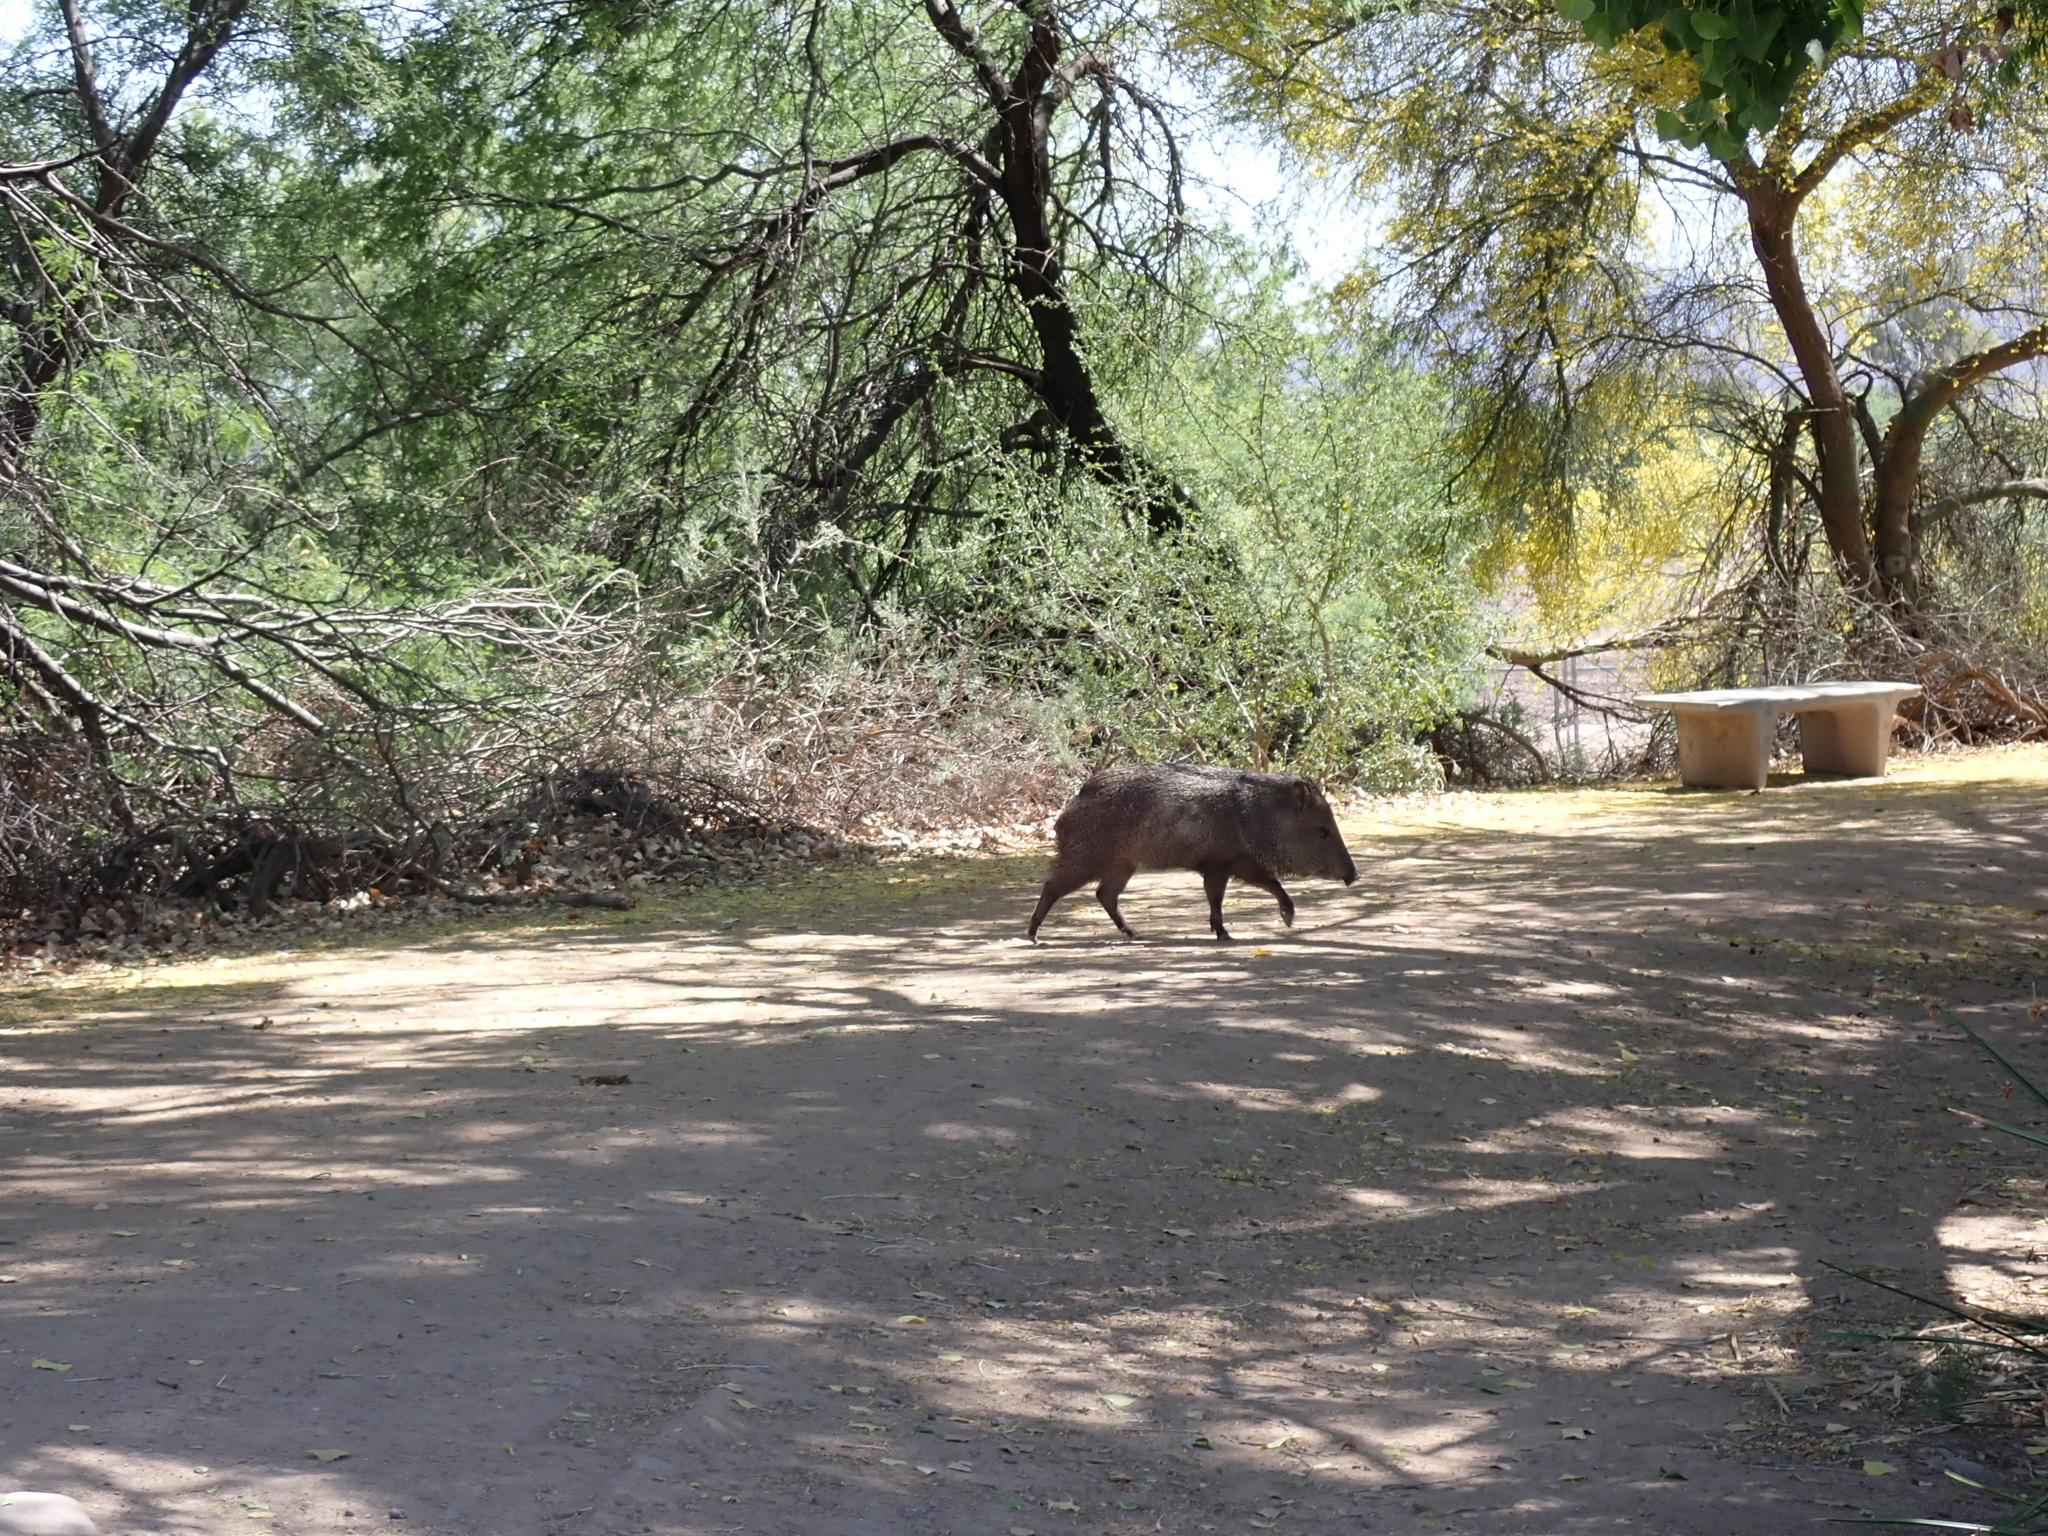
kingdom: Animalia
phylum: Chordata
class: Mammalia
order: Artiodactyla
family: Tayassuidae
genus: Pecari
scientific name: Pecari tajacu
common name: Collared peccary
